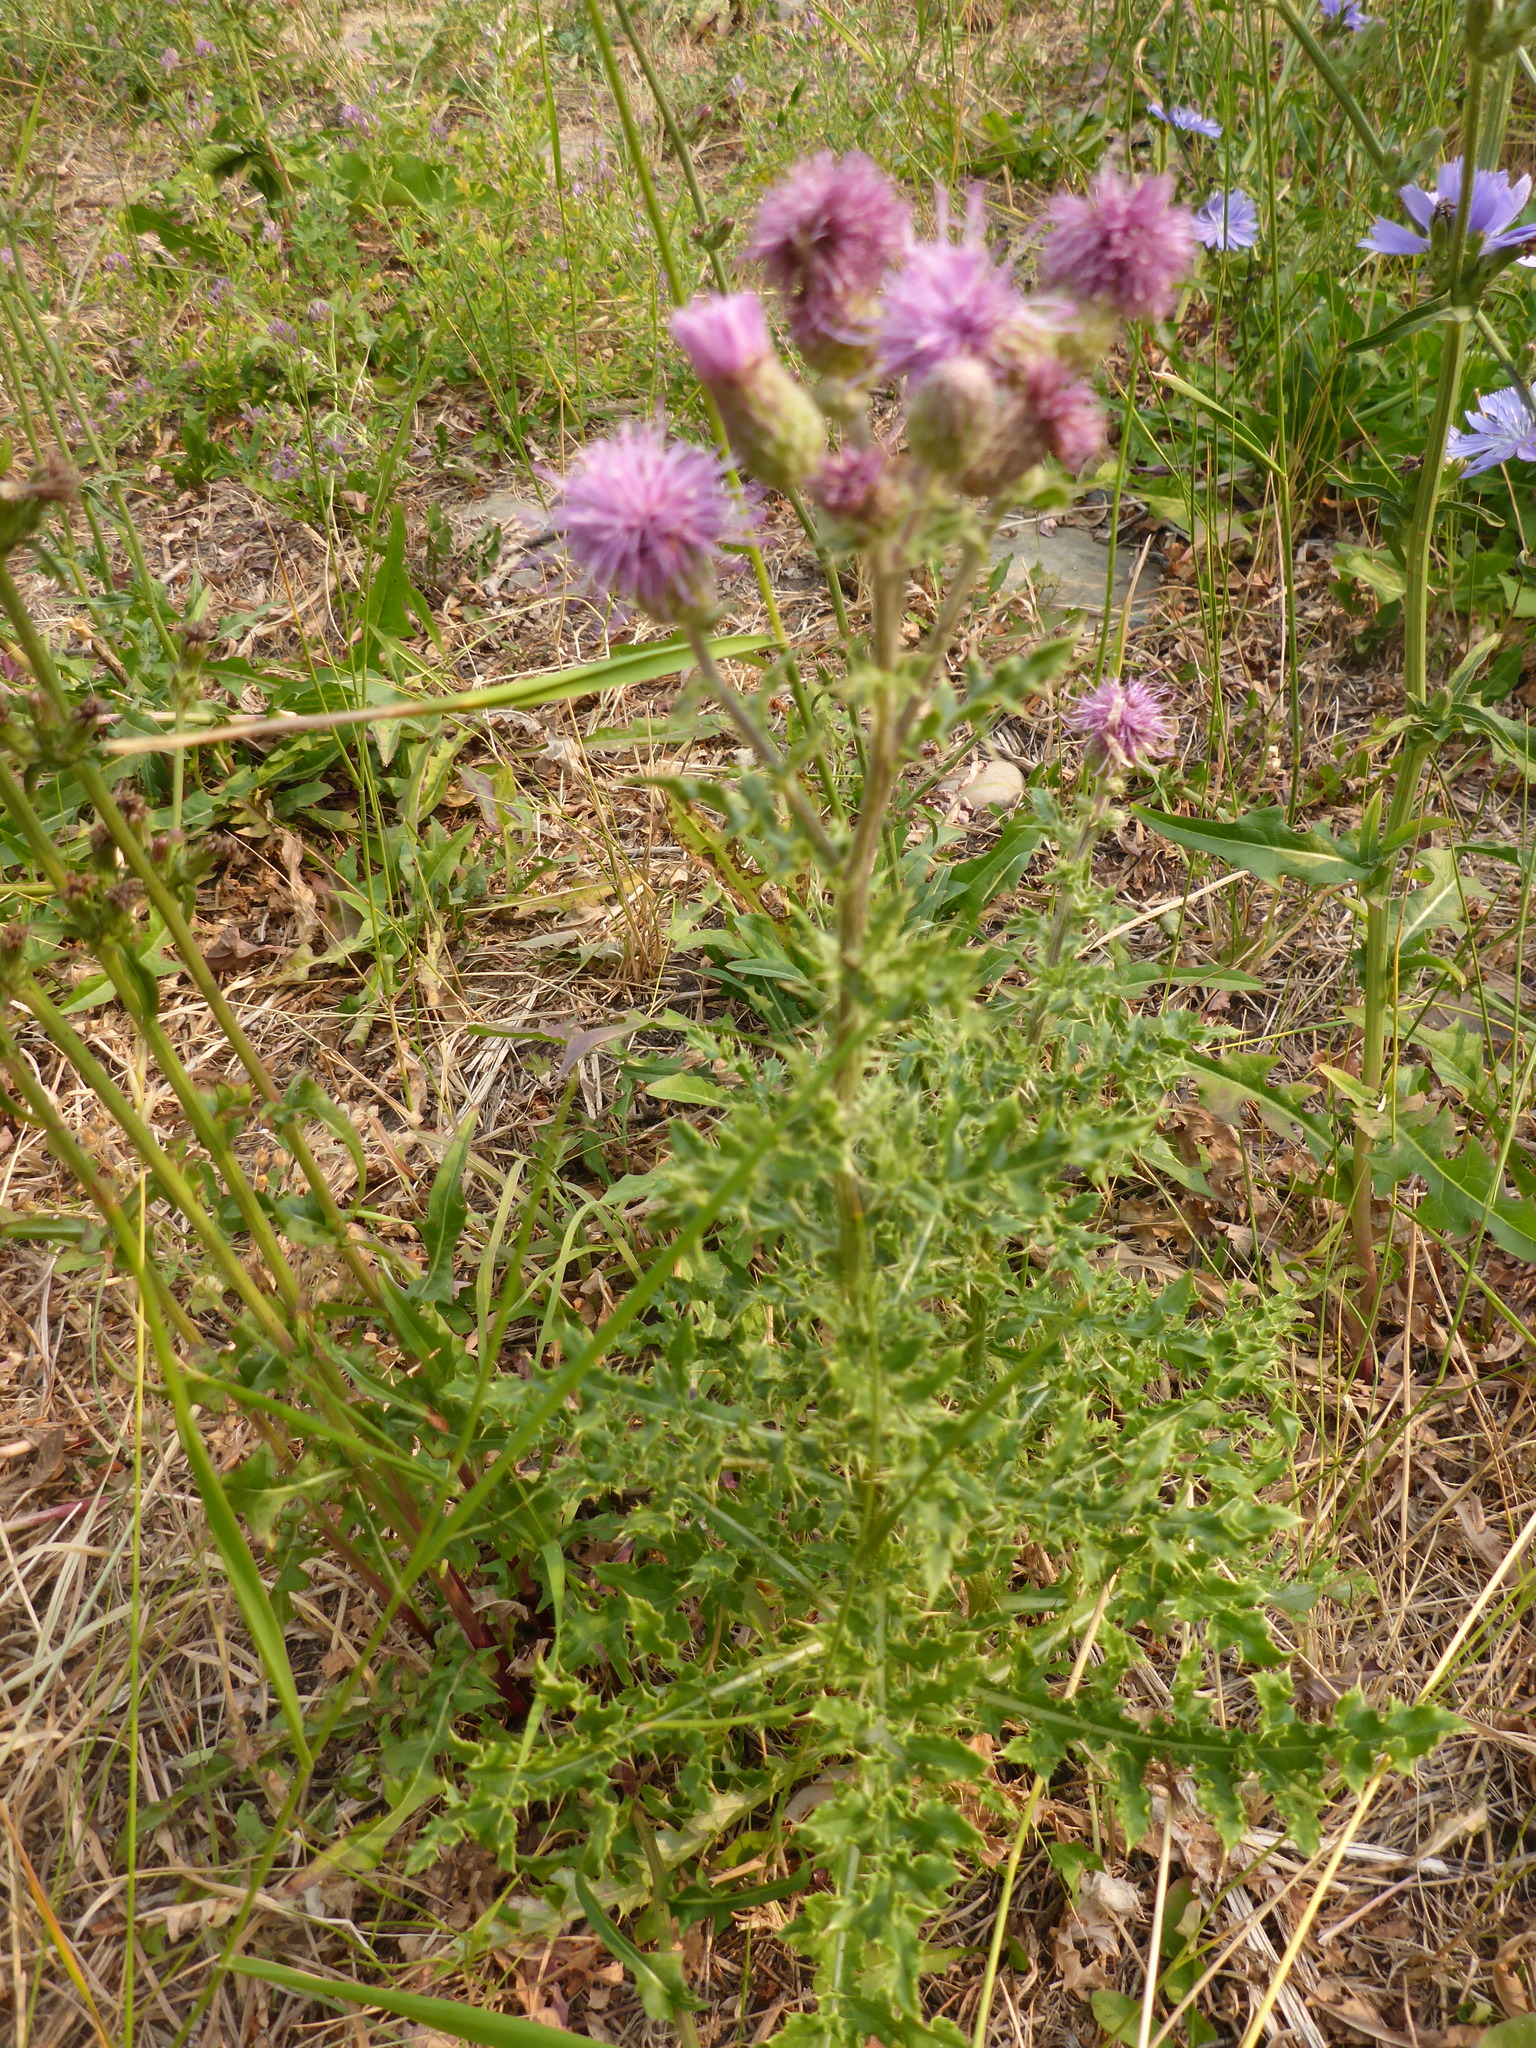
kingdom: Plantae
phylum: Tracheophyta
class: Magnoliopsida
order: Asterales
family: Asteraceae
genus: Cirsium
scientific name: Cirsium arvense
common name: Creeping thistle
